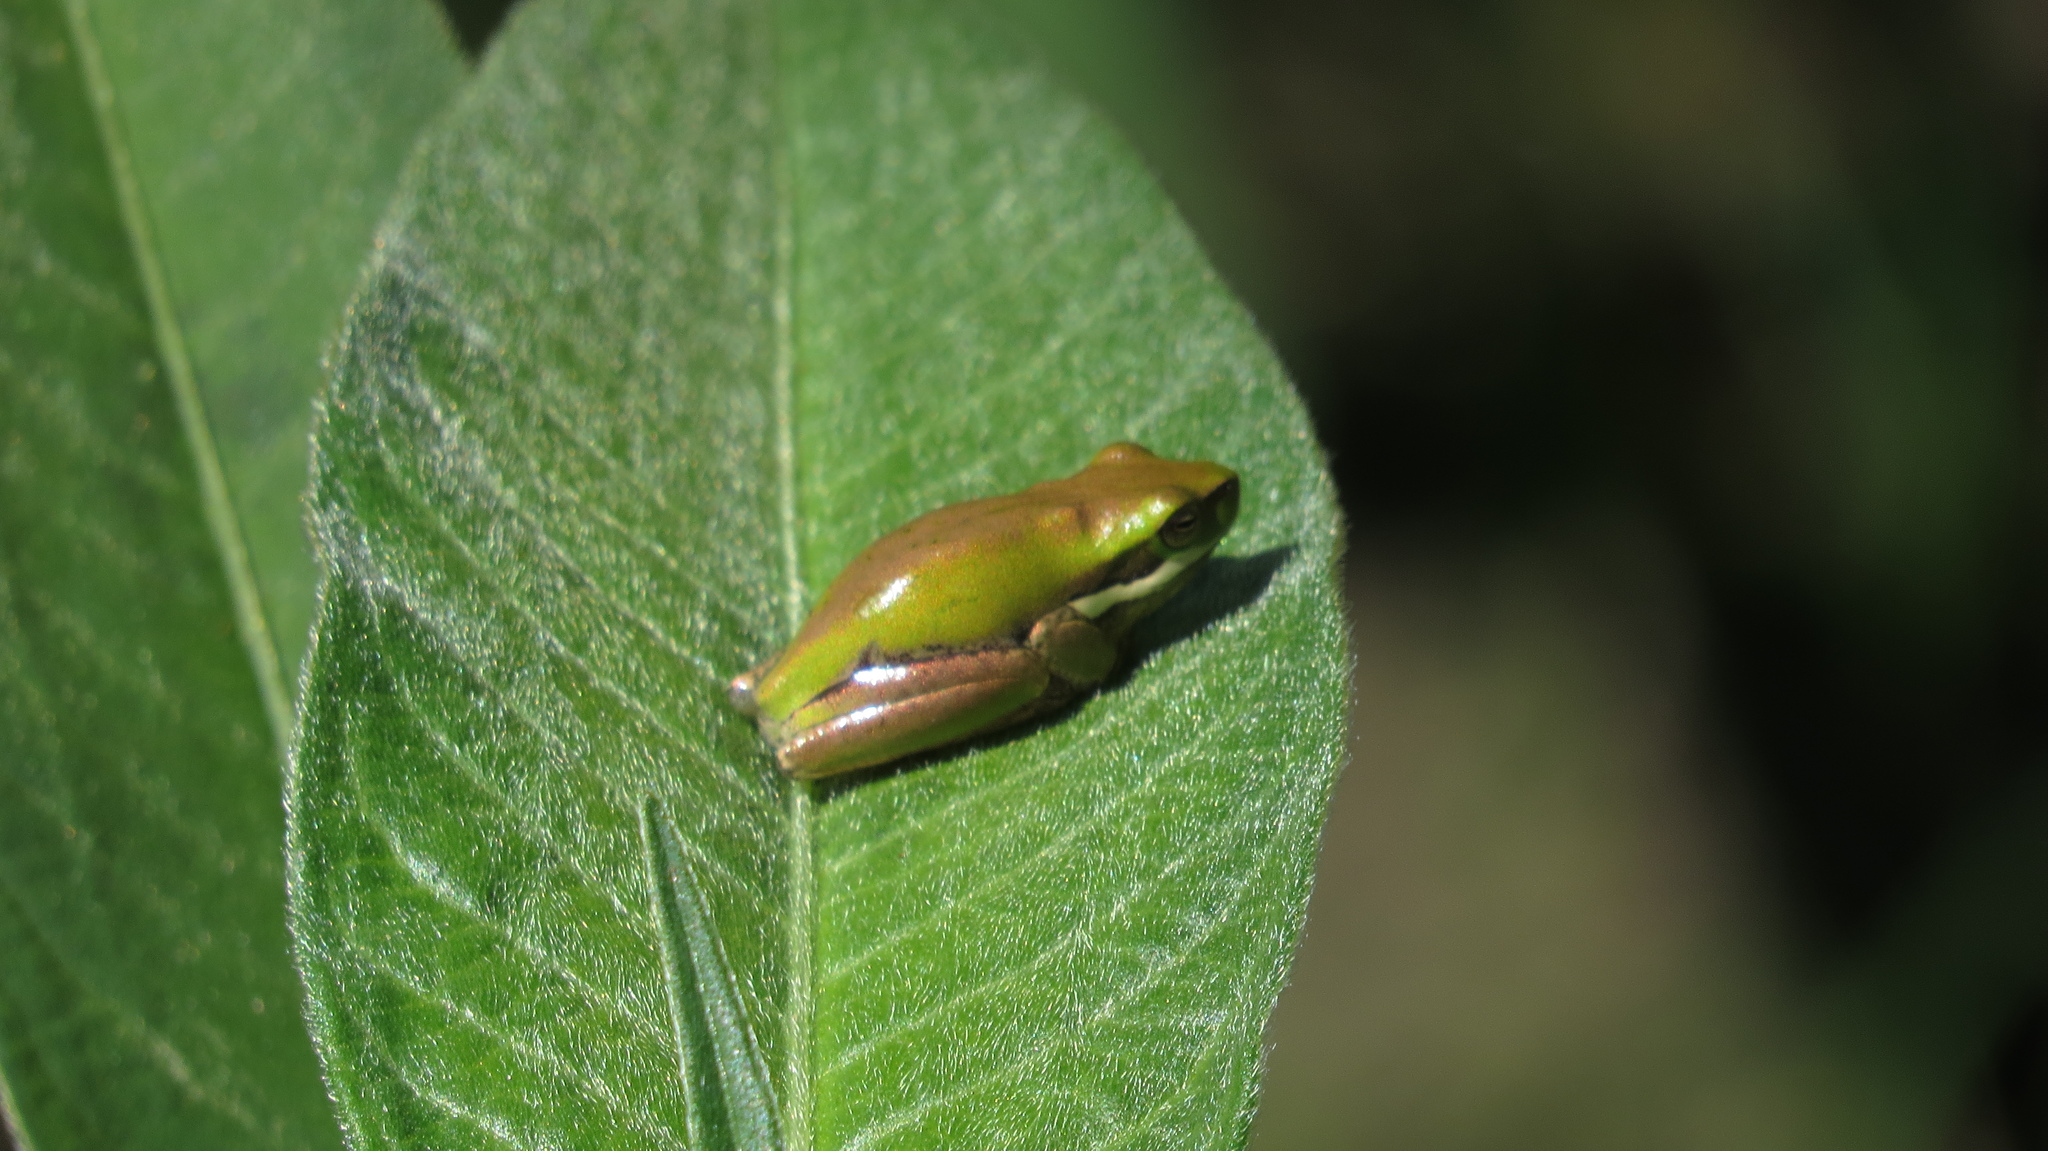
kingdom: Animalia
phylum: Chordata
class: Amphibia
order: Anura
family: Pelodryadidae
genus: Litoria
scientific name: Litoria fallax
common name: Eastern dwarf treefrog
